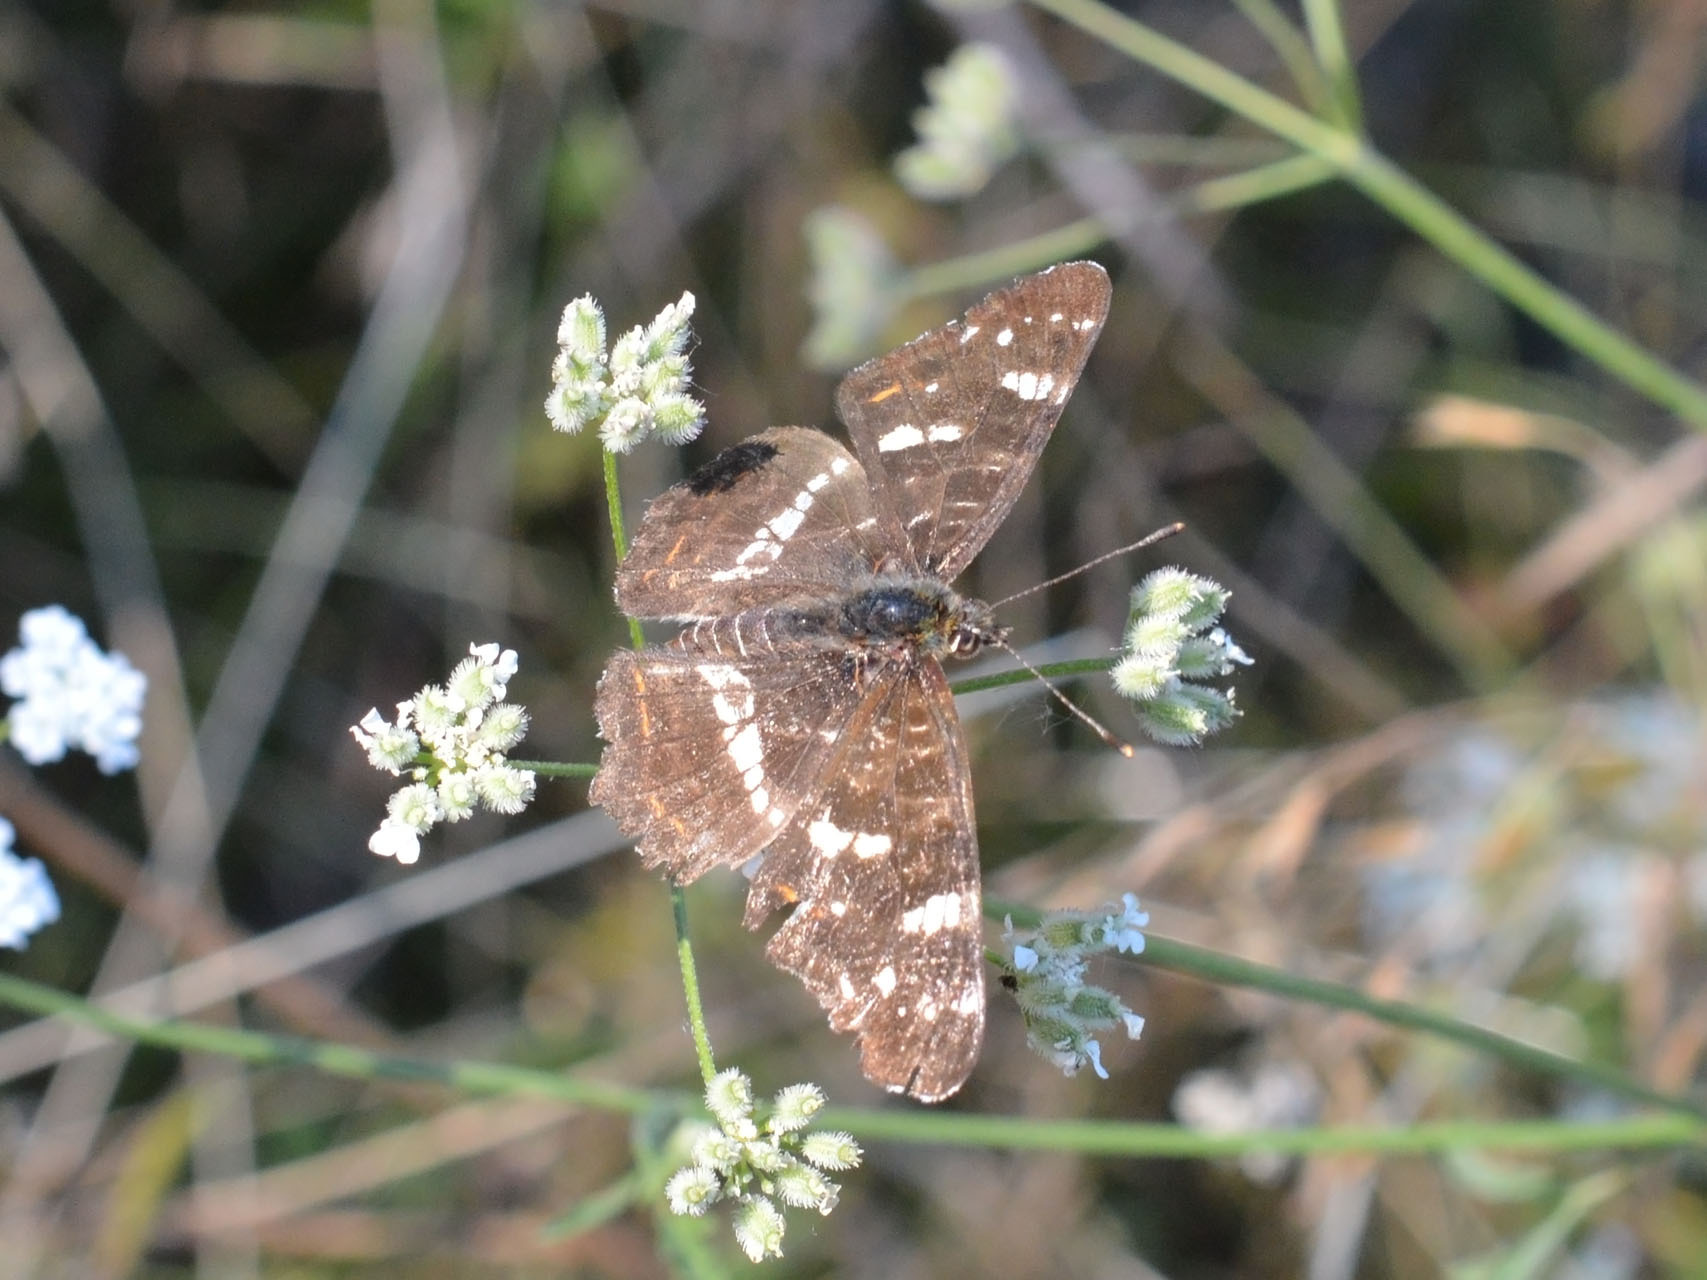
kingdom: Animalia
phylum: Arthropoda
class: Insecta
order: Lepidoptera
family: Nymphalidae
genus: Araschnia
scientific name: Araschnia levana
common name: Map butterfly
